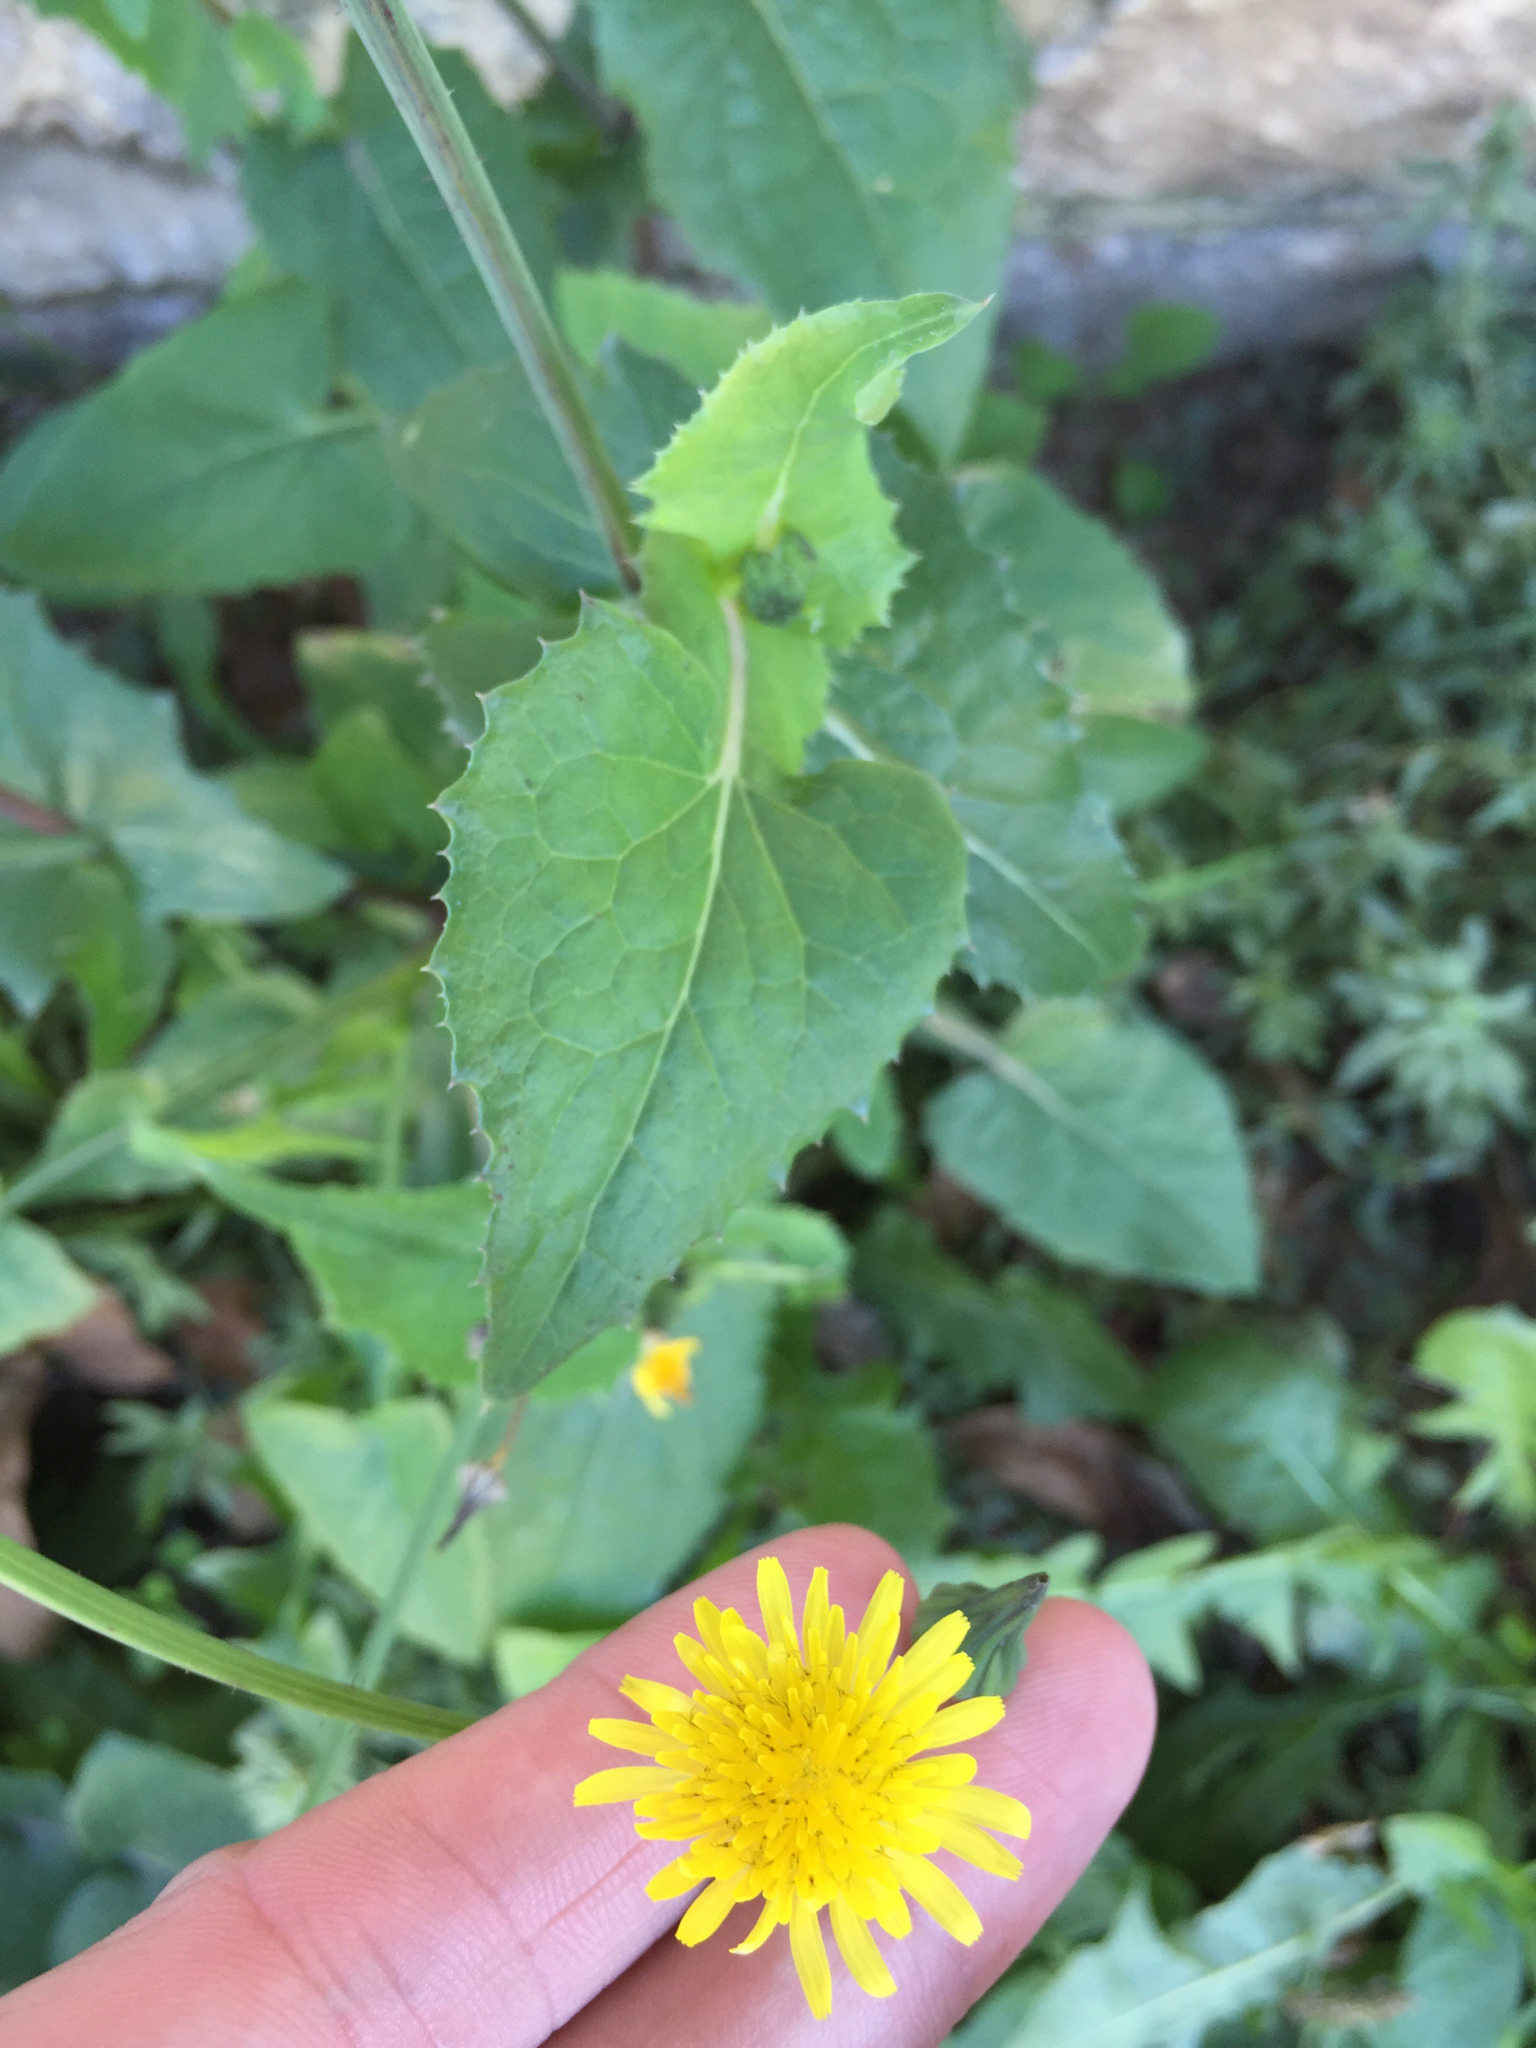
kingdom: Plantae
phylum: Tracheophyta
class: Magnoliopsida
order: Asterales
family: Asteraceae
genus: Sonchus
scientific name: Sonchus oleraceus
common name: Common sowthistle
